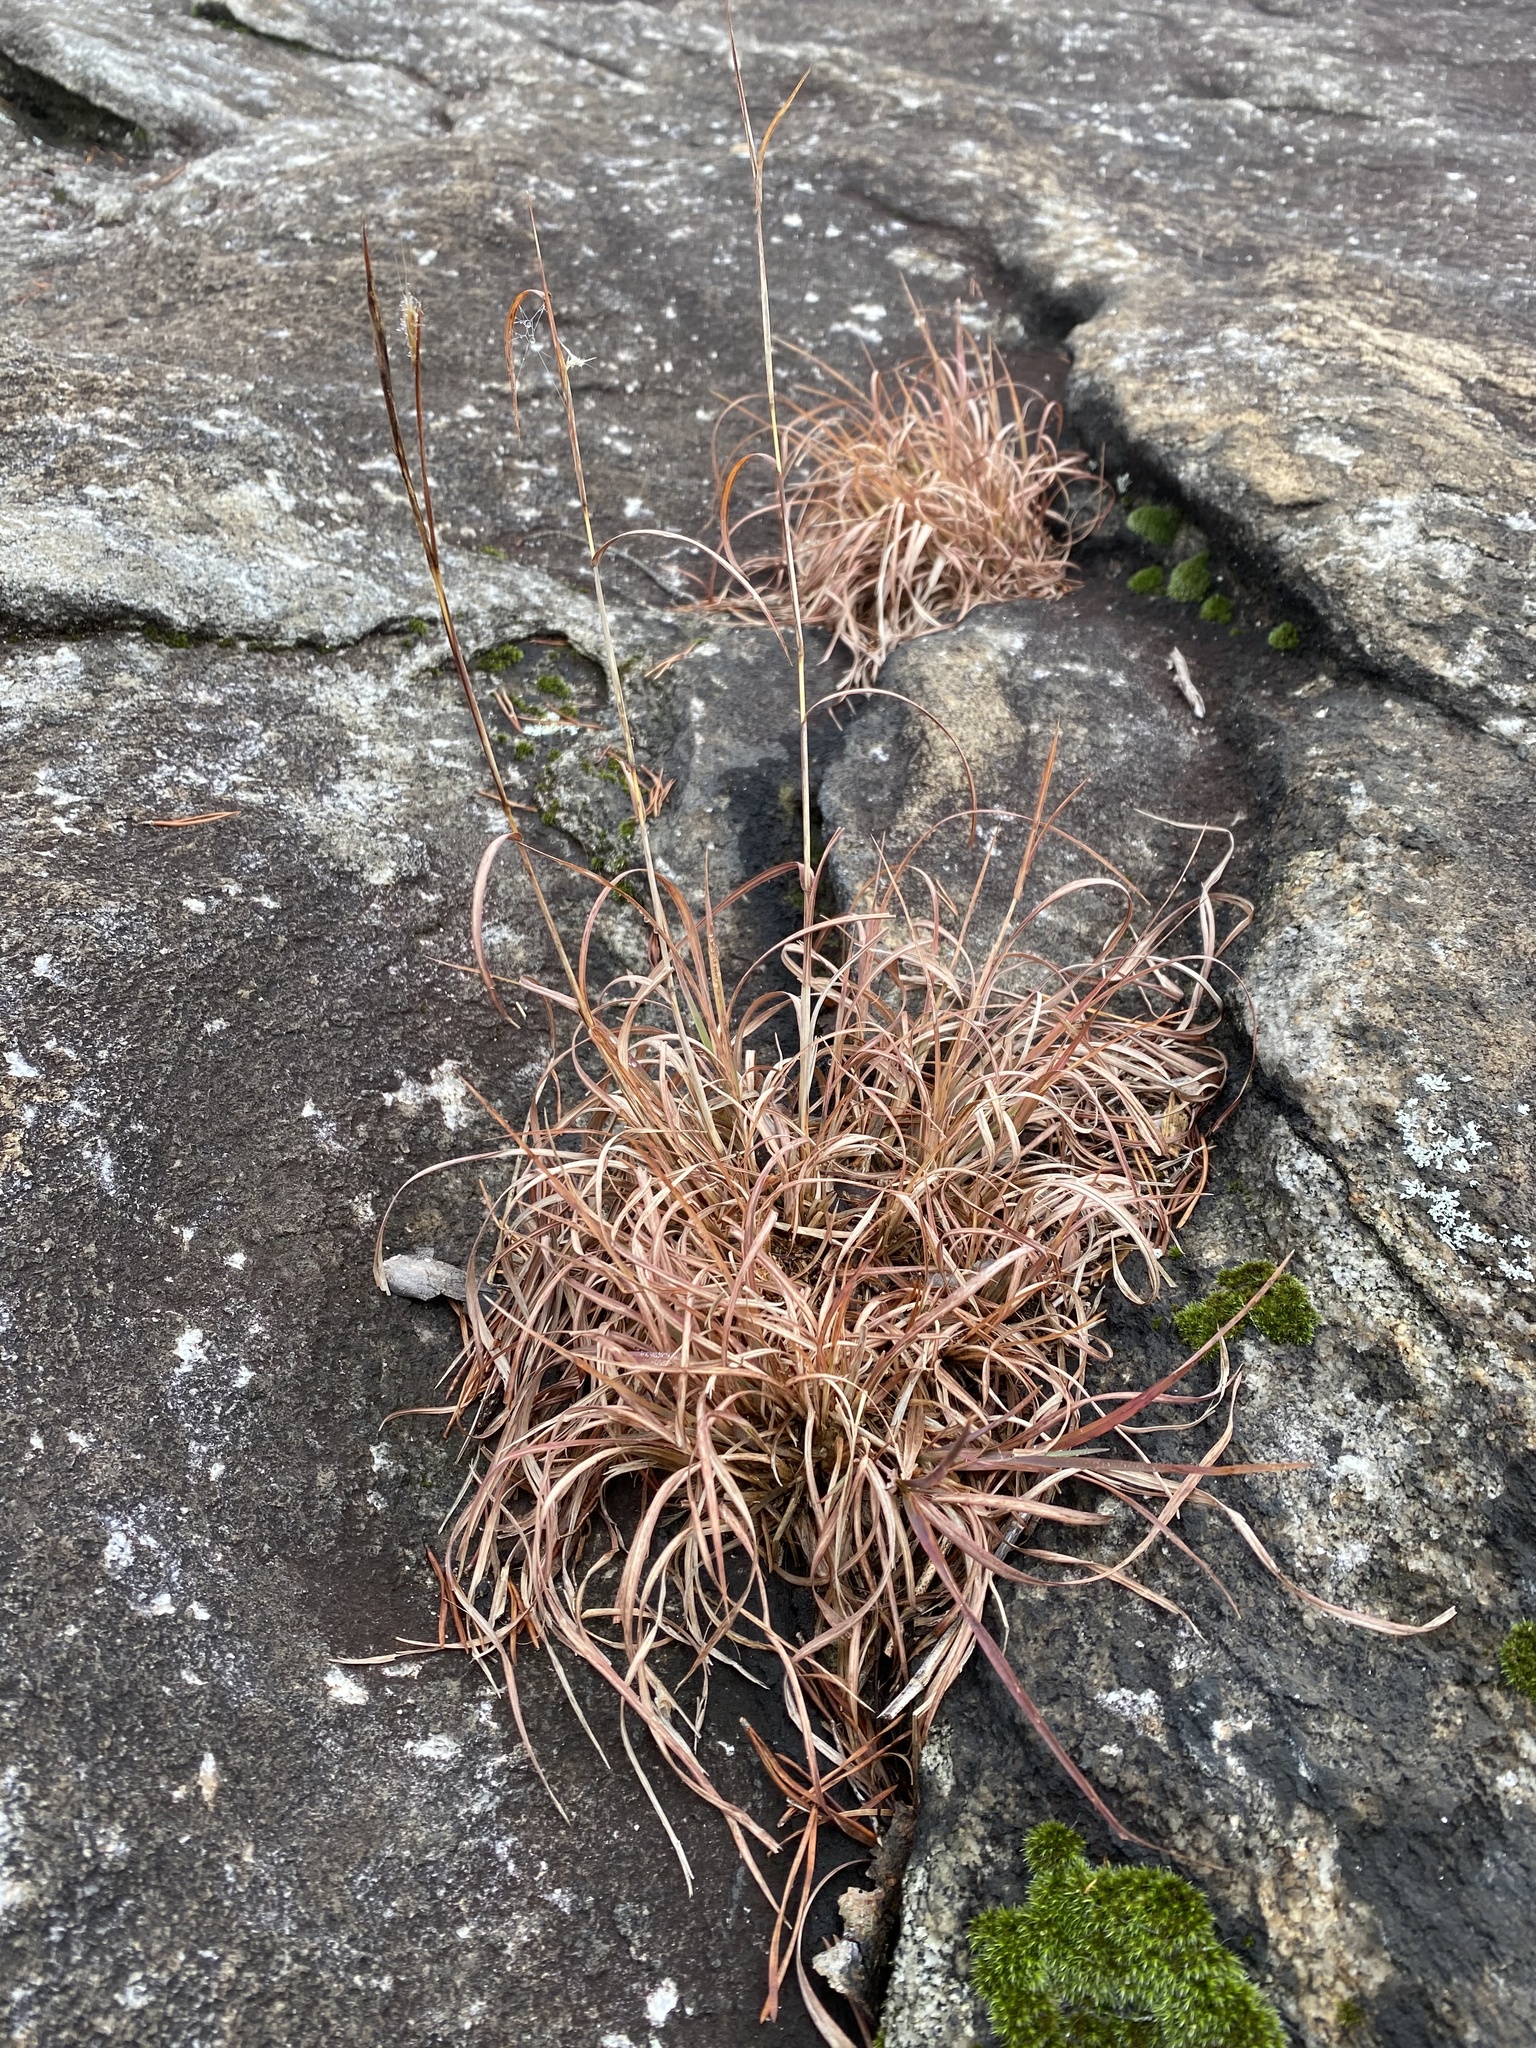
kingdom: Plantae
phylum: Tracheophyta
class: Liliopsida
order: Poales
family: Poaceae
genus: Andropogon
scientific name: Andropogon ternarius
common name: Split bluestem
